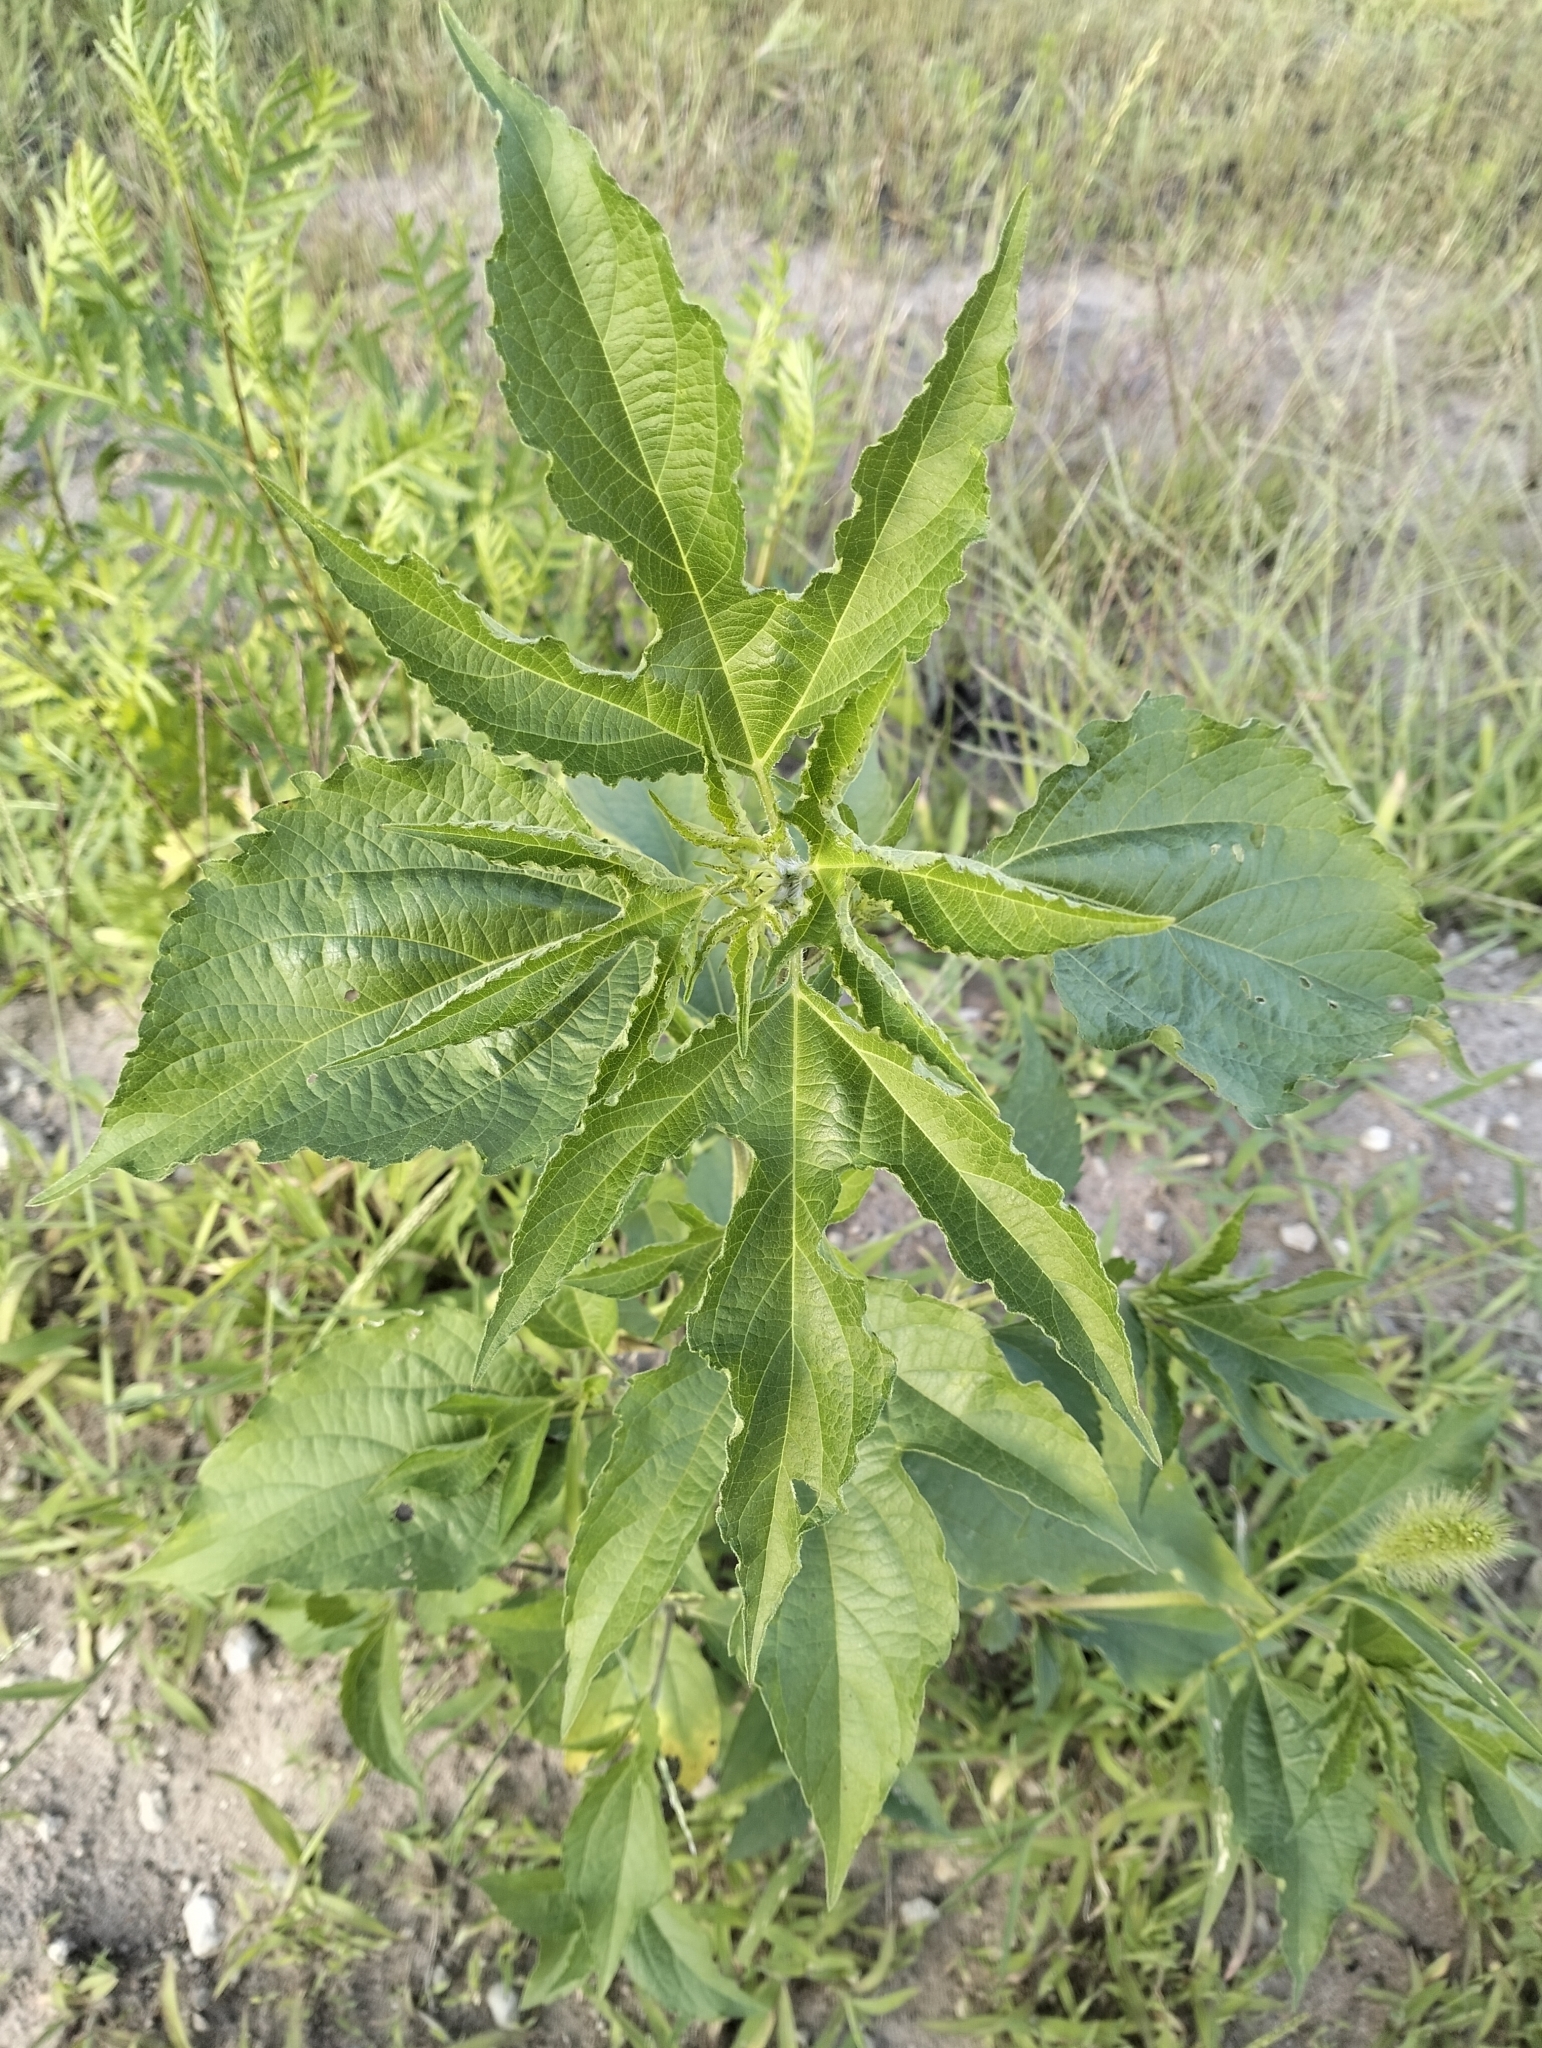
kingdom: Plantae
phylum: Tracheophyta
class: Magnoliopsida
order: Asterales
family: Asteraceae
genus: Ambrosia
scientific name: Ambrosia trifida
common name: Giant ragweed
